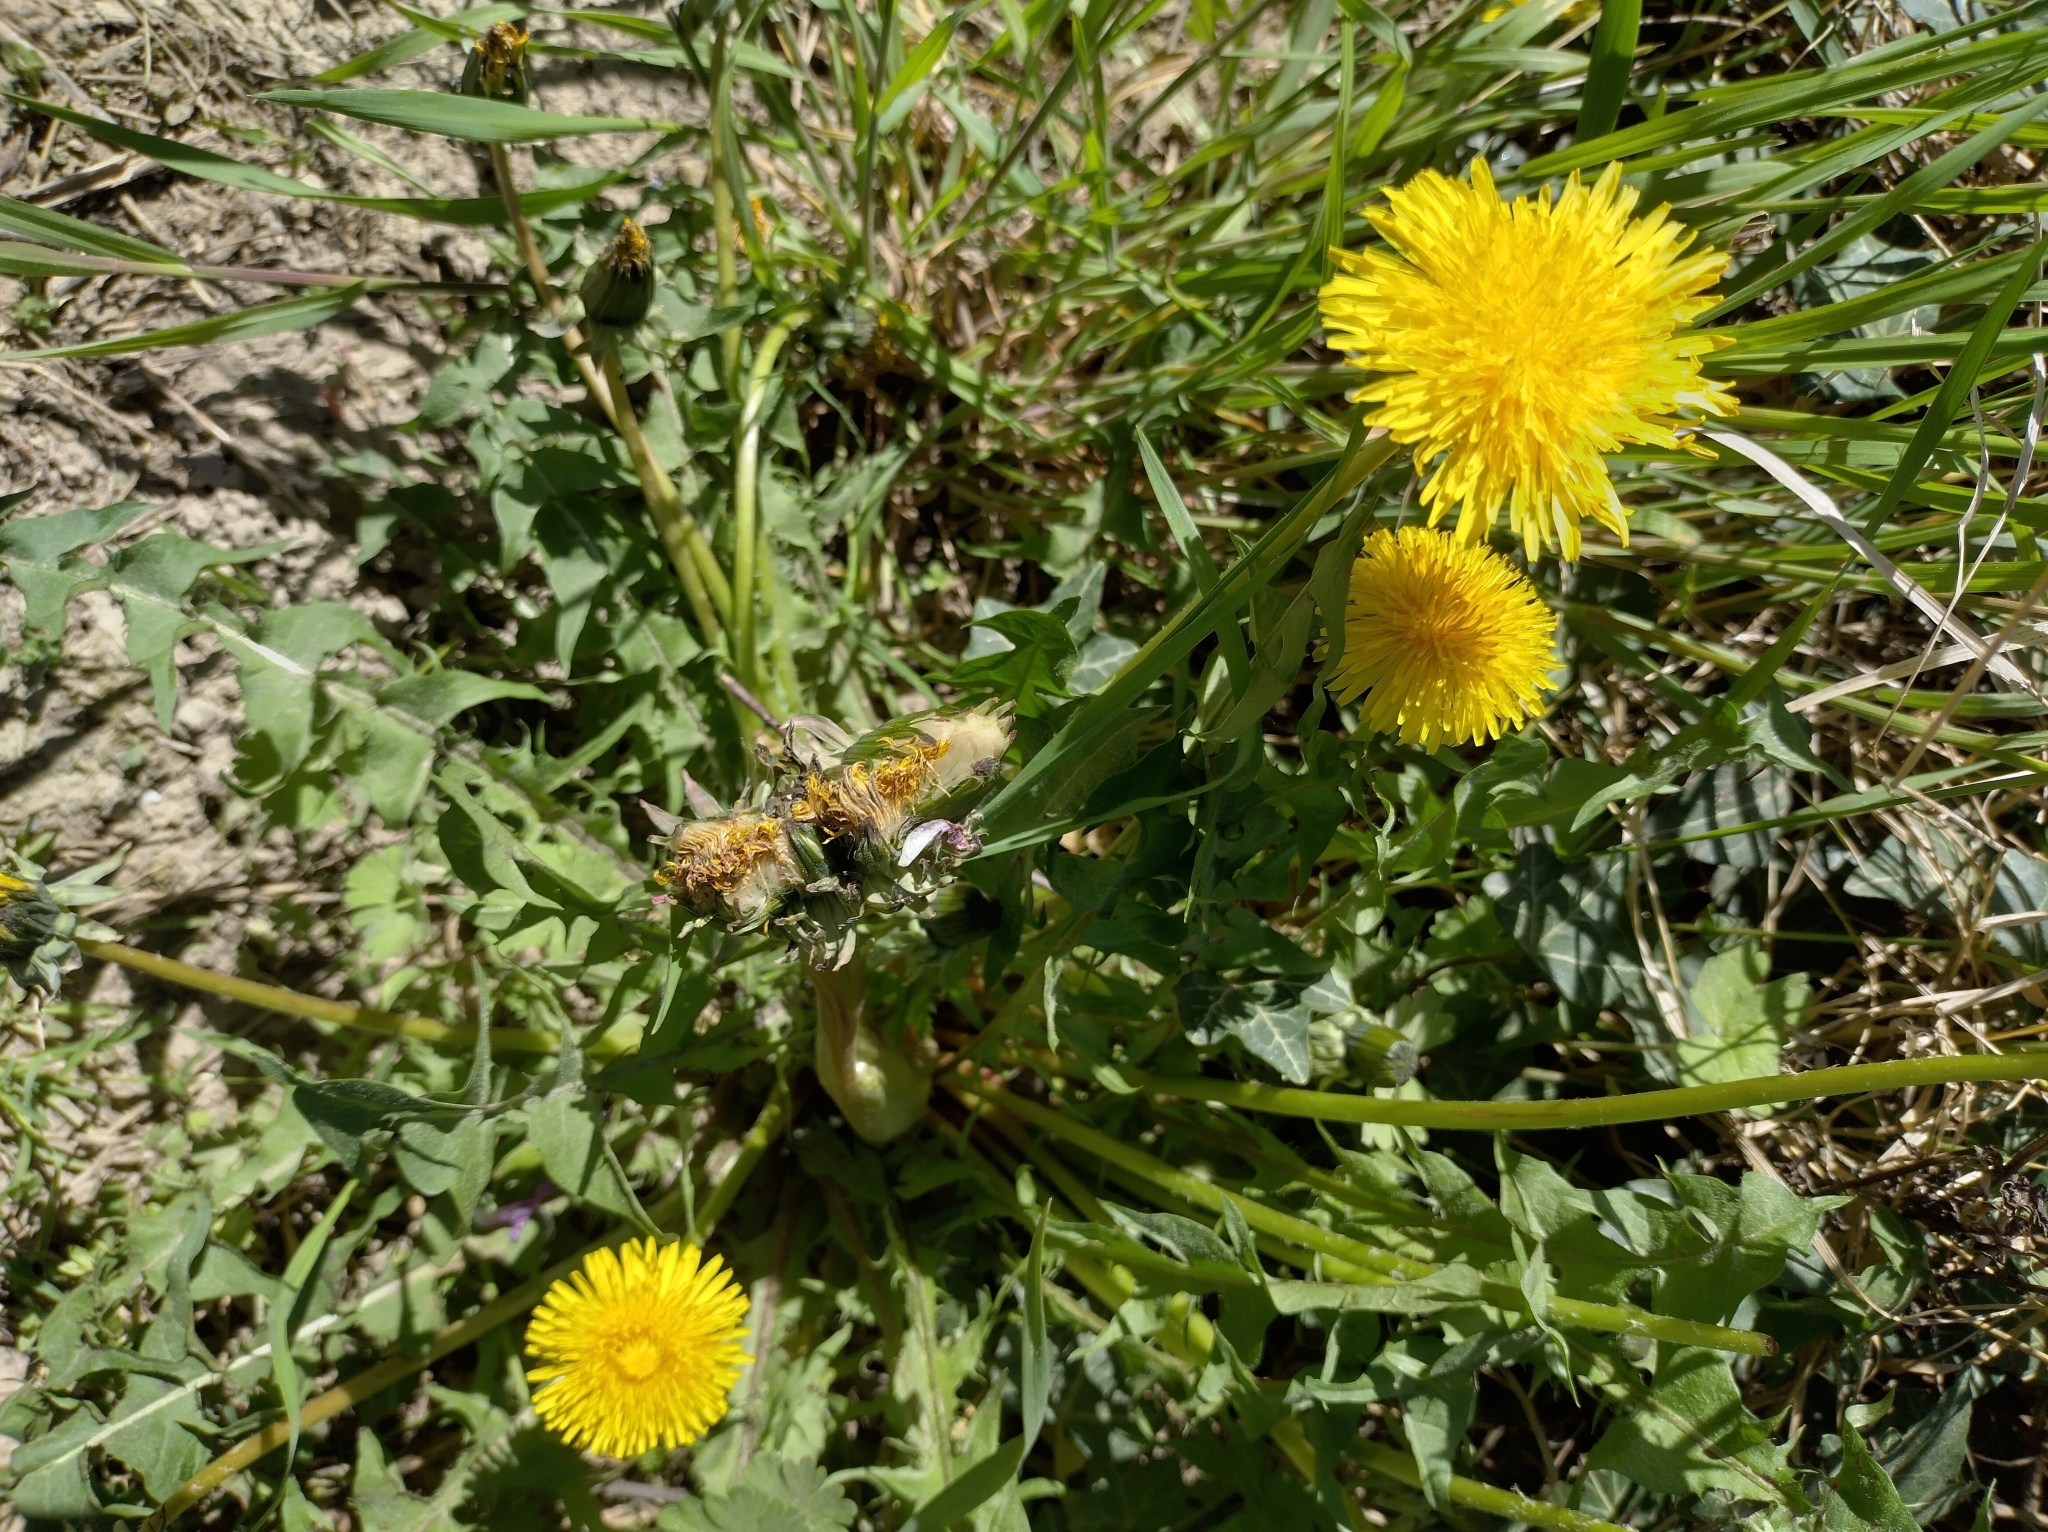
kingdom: Plantae
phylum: Tracheophyta
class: Magnoliopsida
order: Asterales
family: Asteraceae
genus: Taraxacum
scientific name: Taraxacum
